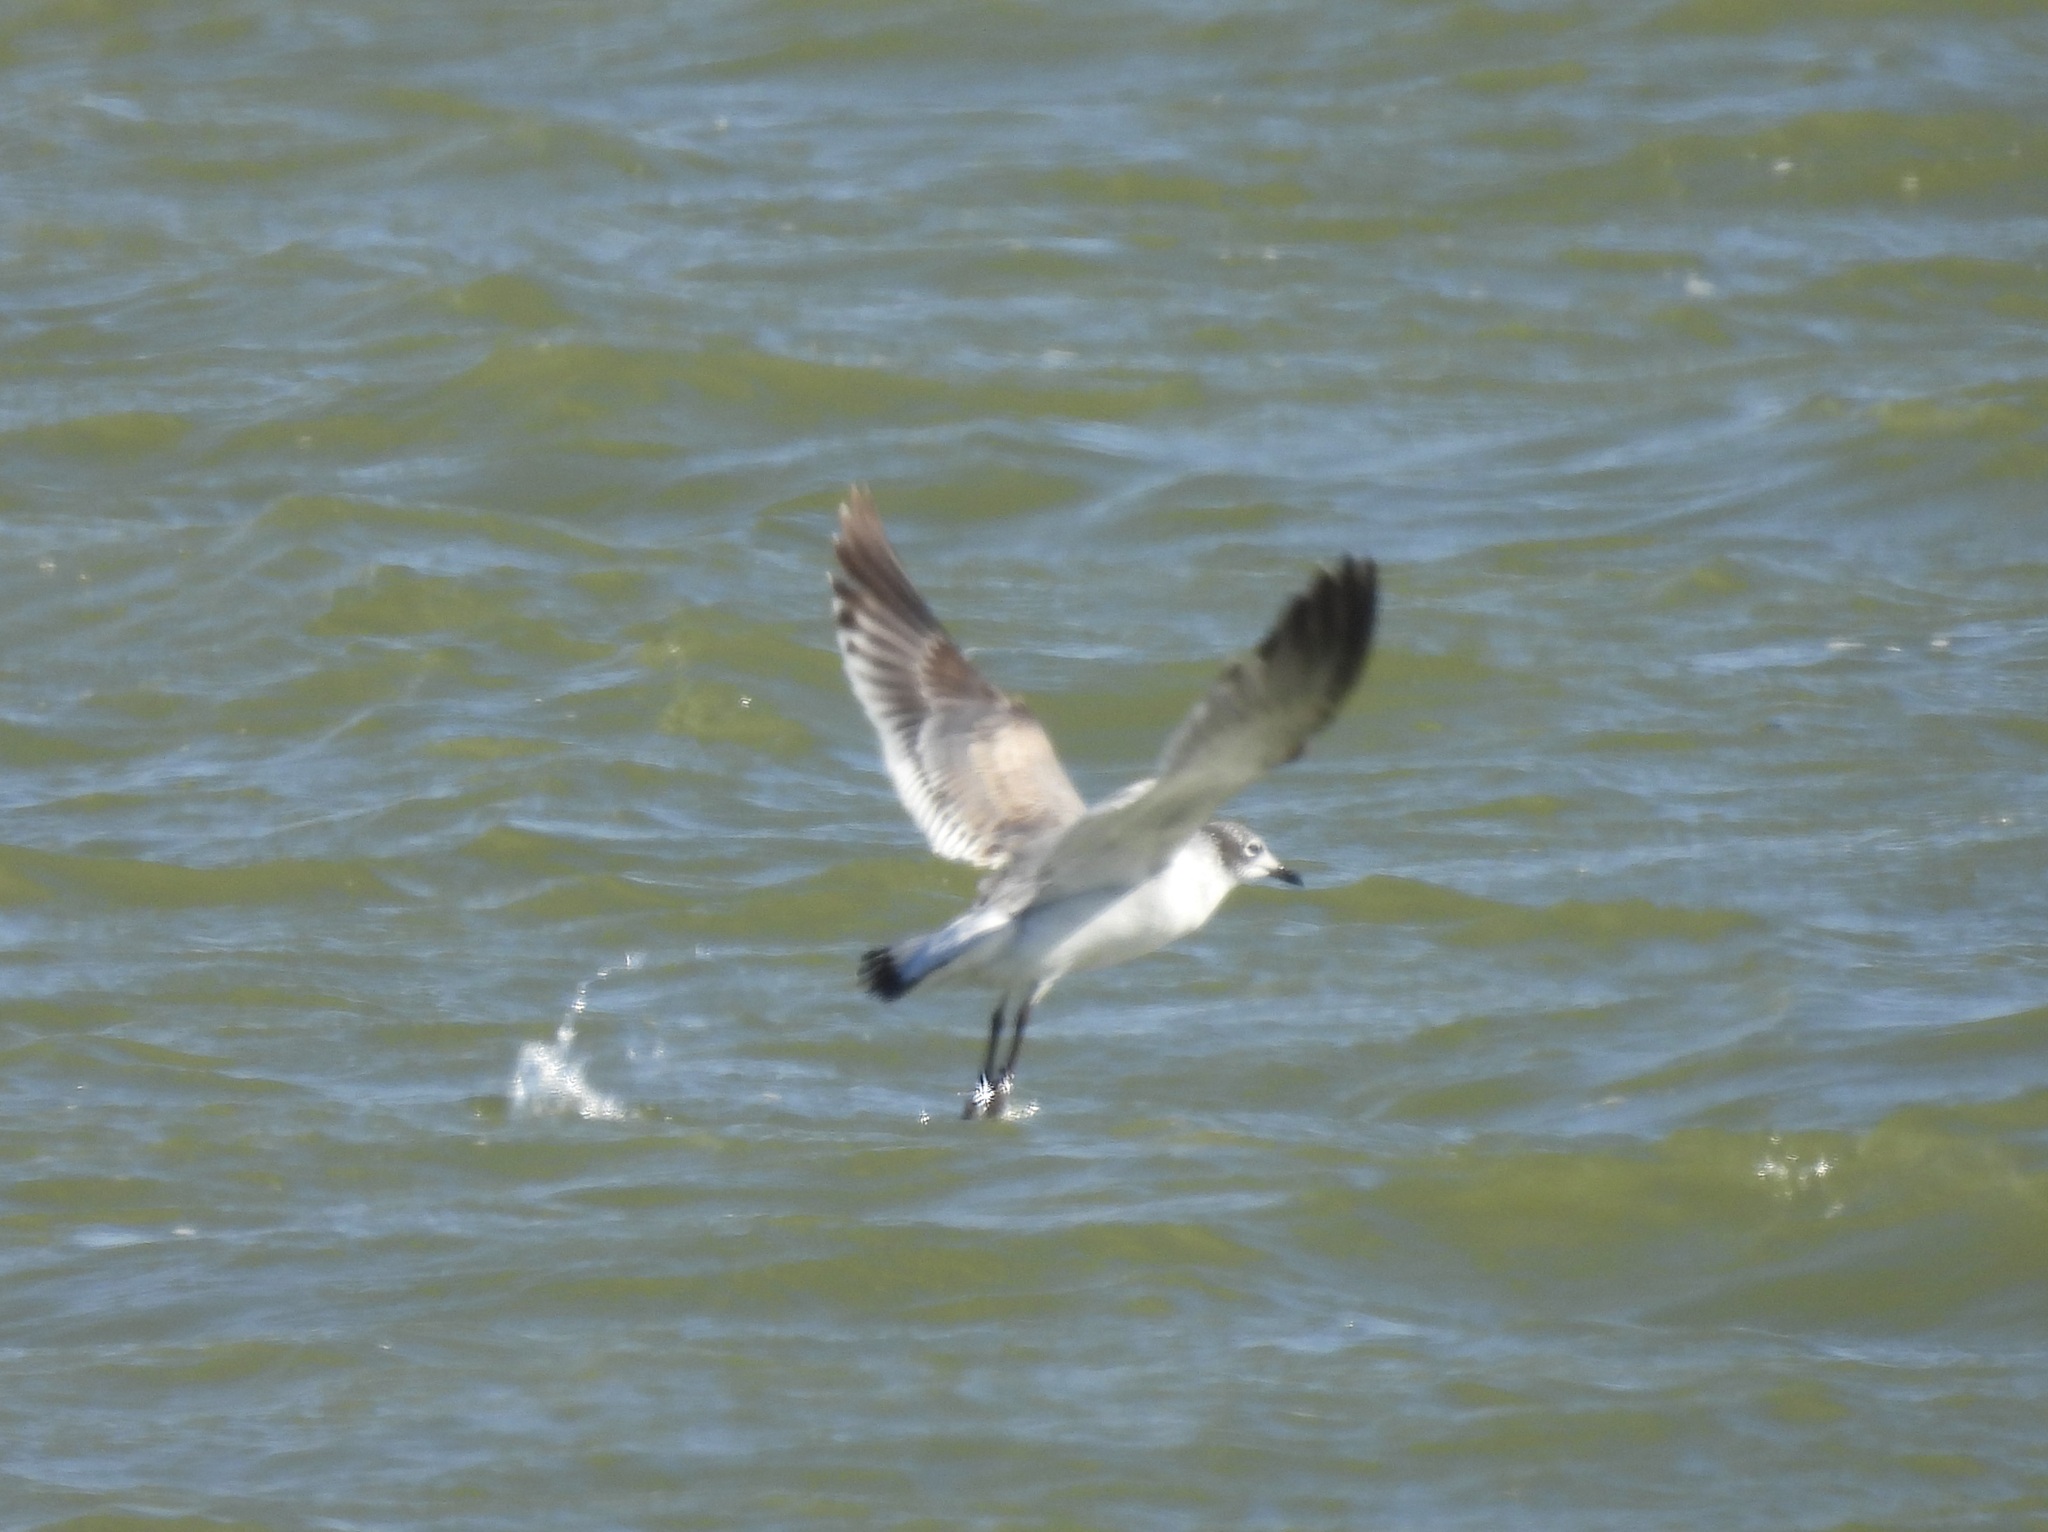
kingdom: Animalia
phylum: Chordata
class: Aves
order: Charadriiformes
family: Laridae
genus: Leucophaeus
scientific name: Leucophaeus pipixcan
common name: Franklin's gull
